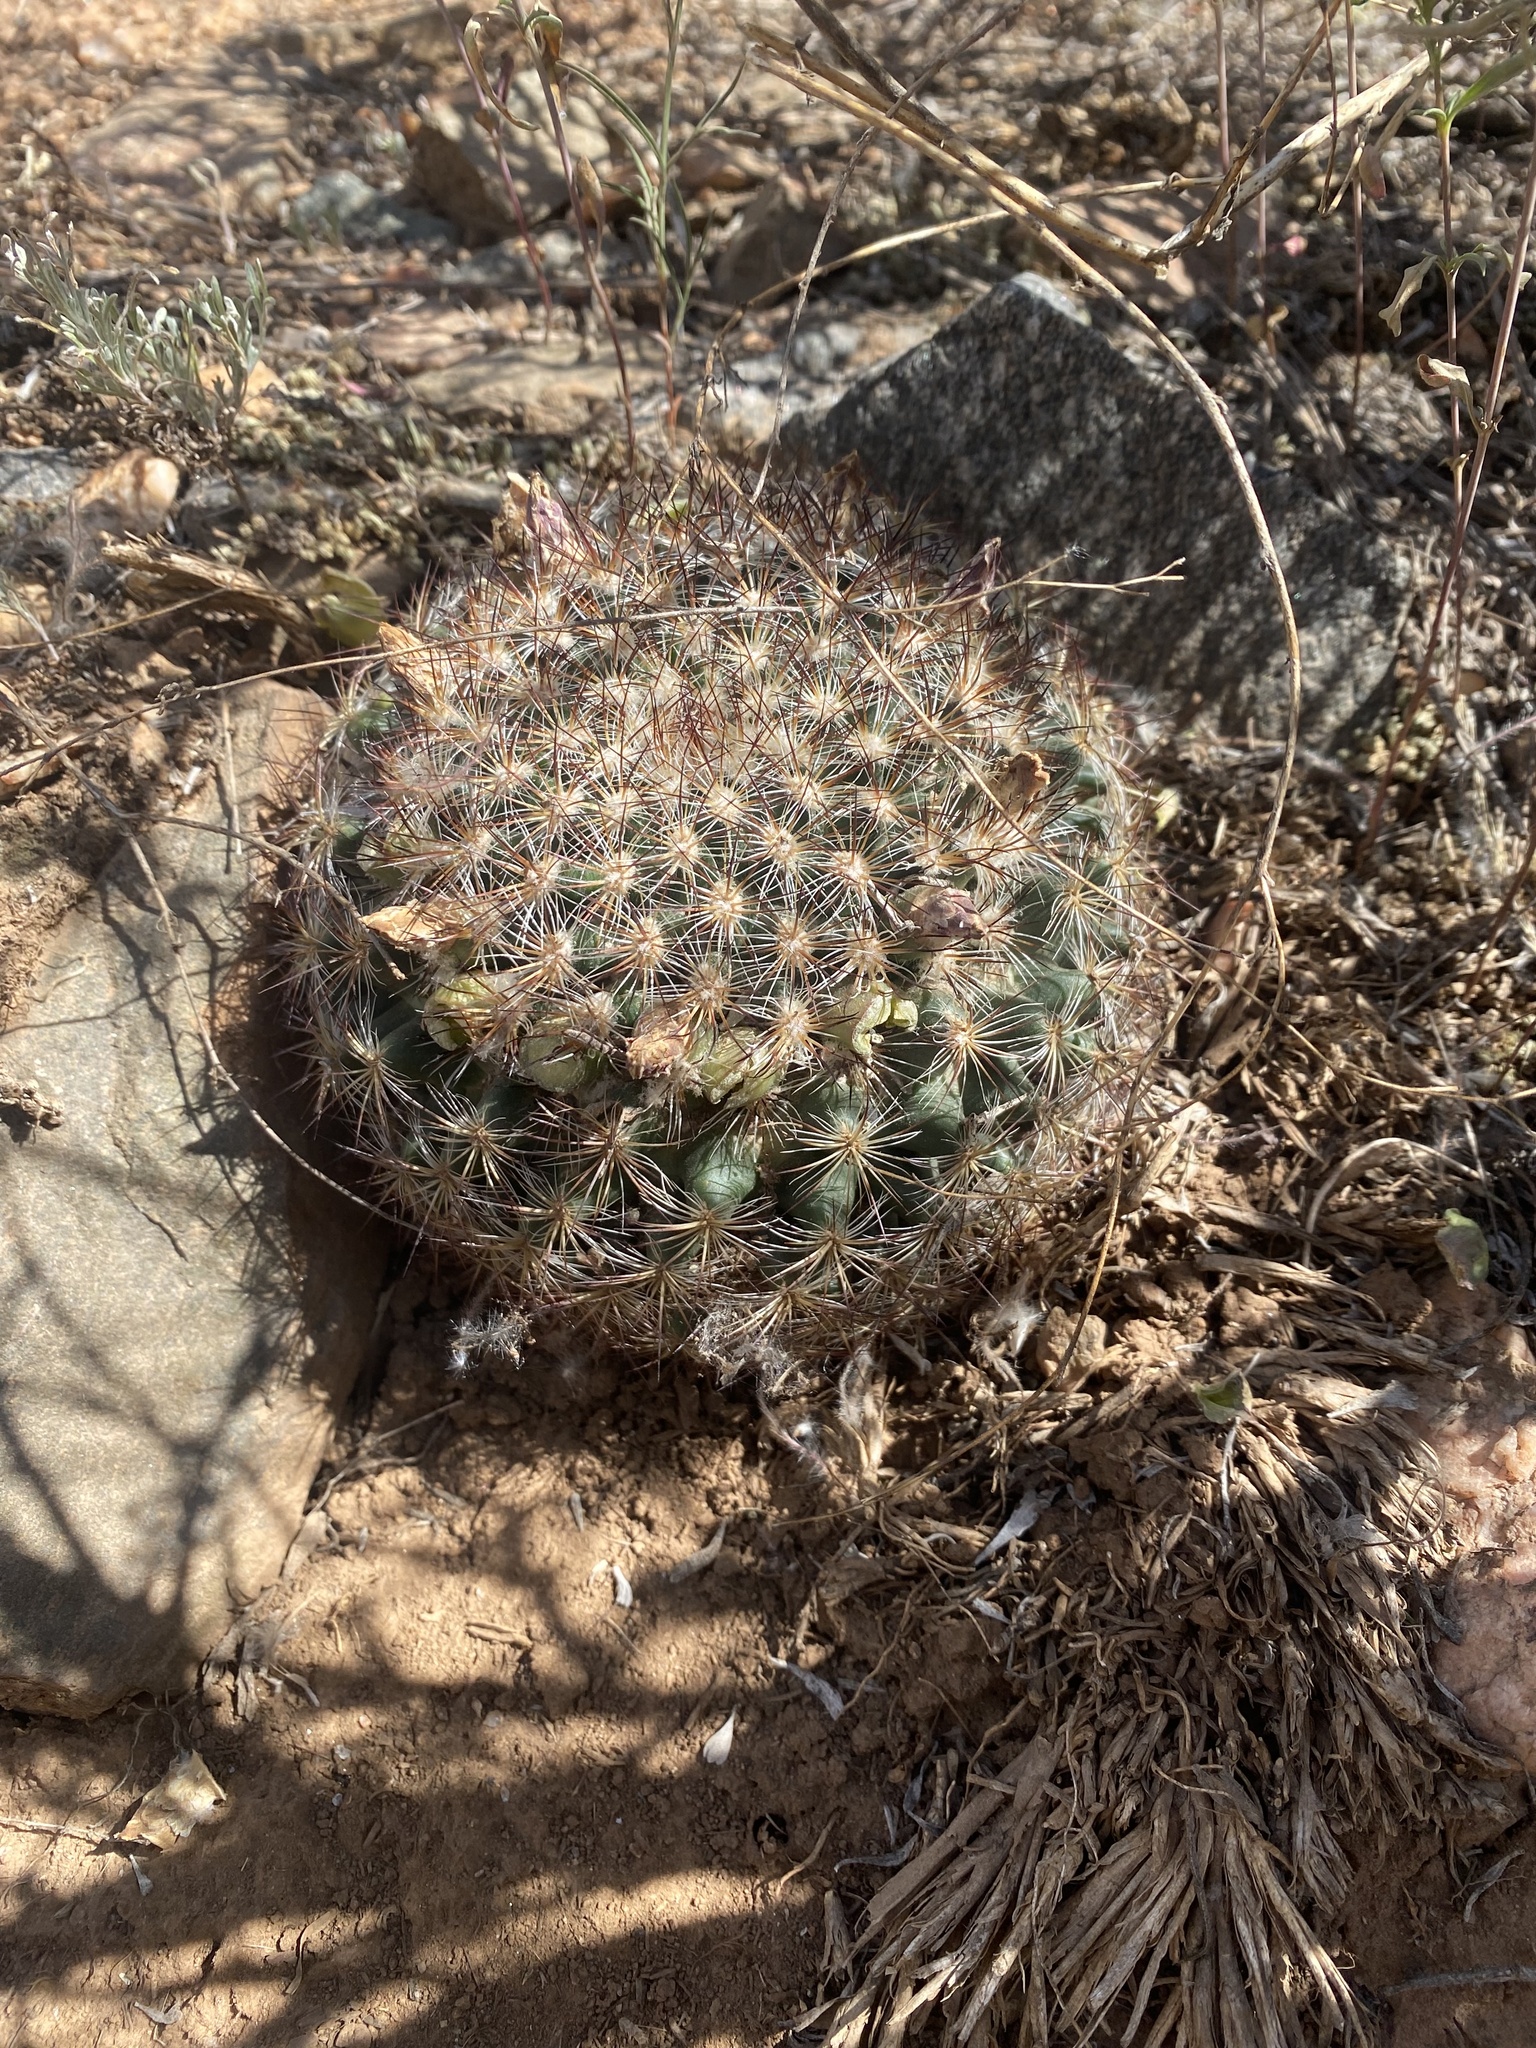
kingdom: Plantae
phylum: Tracheophyta
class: Magnoliopsida
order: Caryophyllales
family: Cactaceae
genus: Pediocactus
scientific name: Pediocactus simpsonii
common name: Simpson's hedgehog cactus
